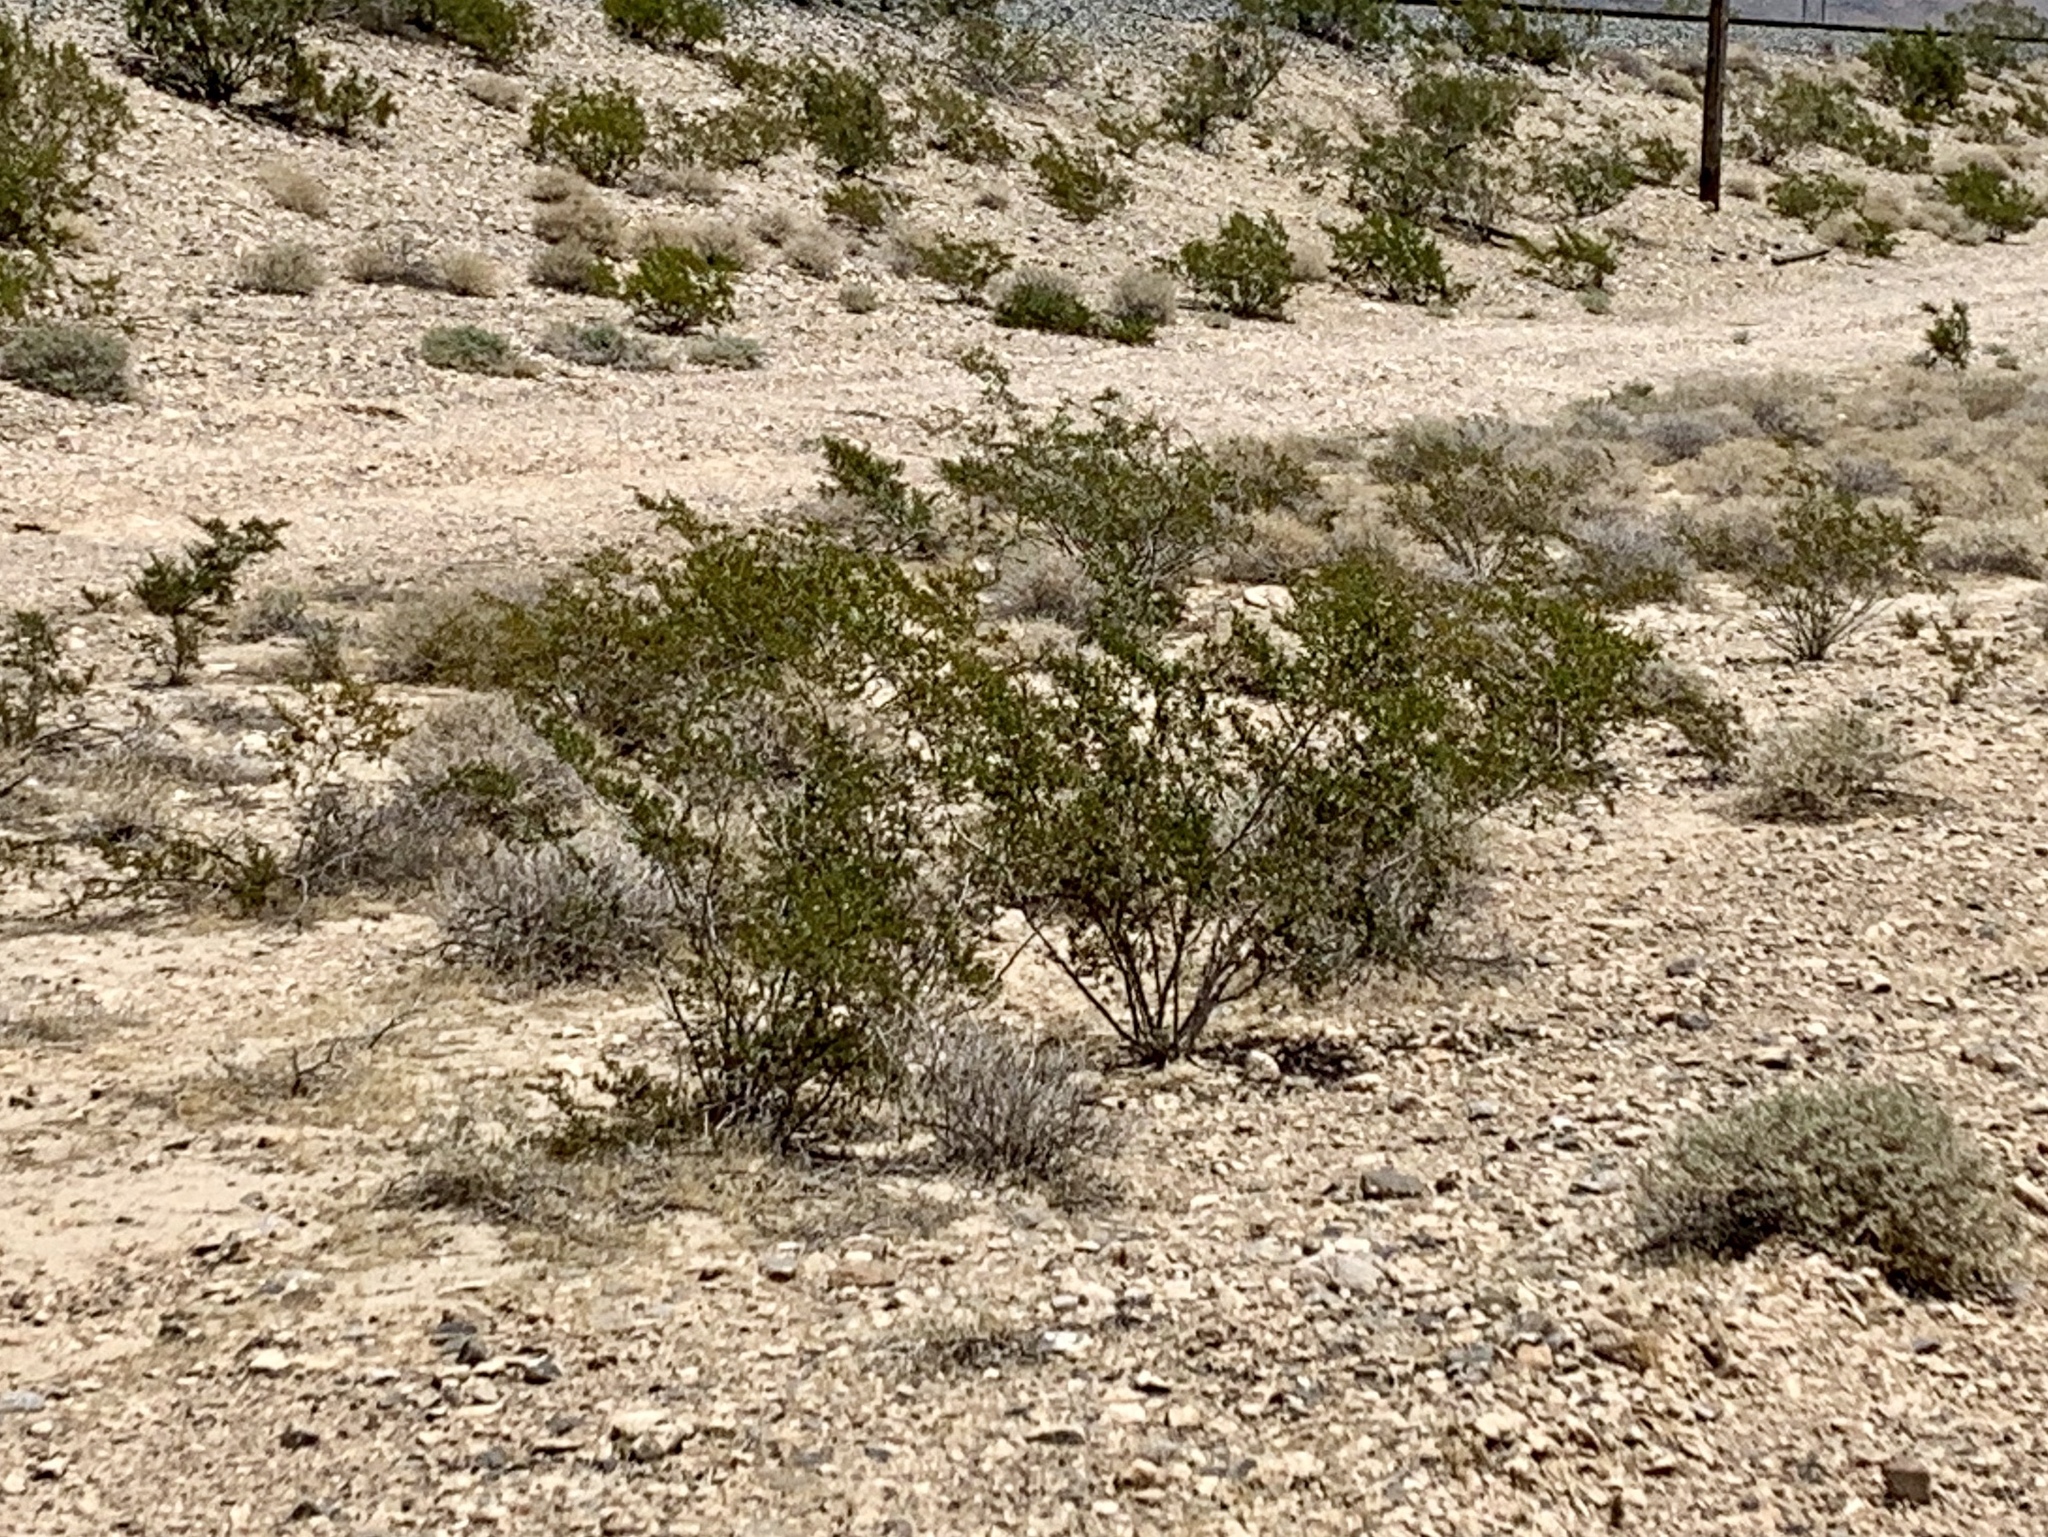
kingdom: Plantae
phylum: Tracheophyta
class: Magnoliopsida
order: Zygophyllales
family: Zygophyllaceae
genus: Larrea
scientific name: Larrea tridentata
